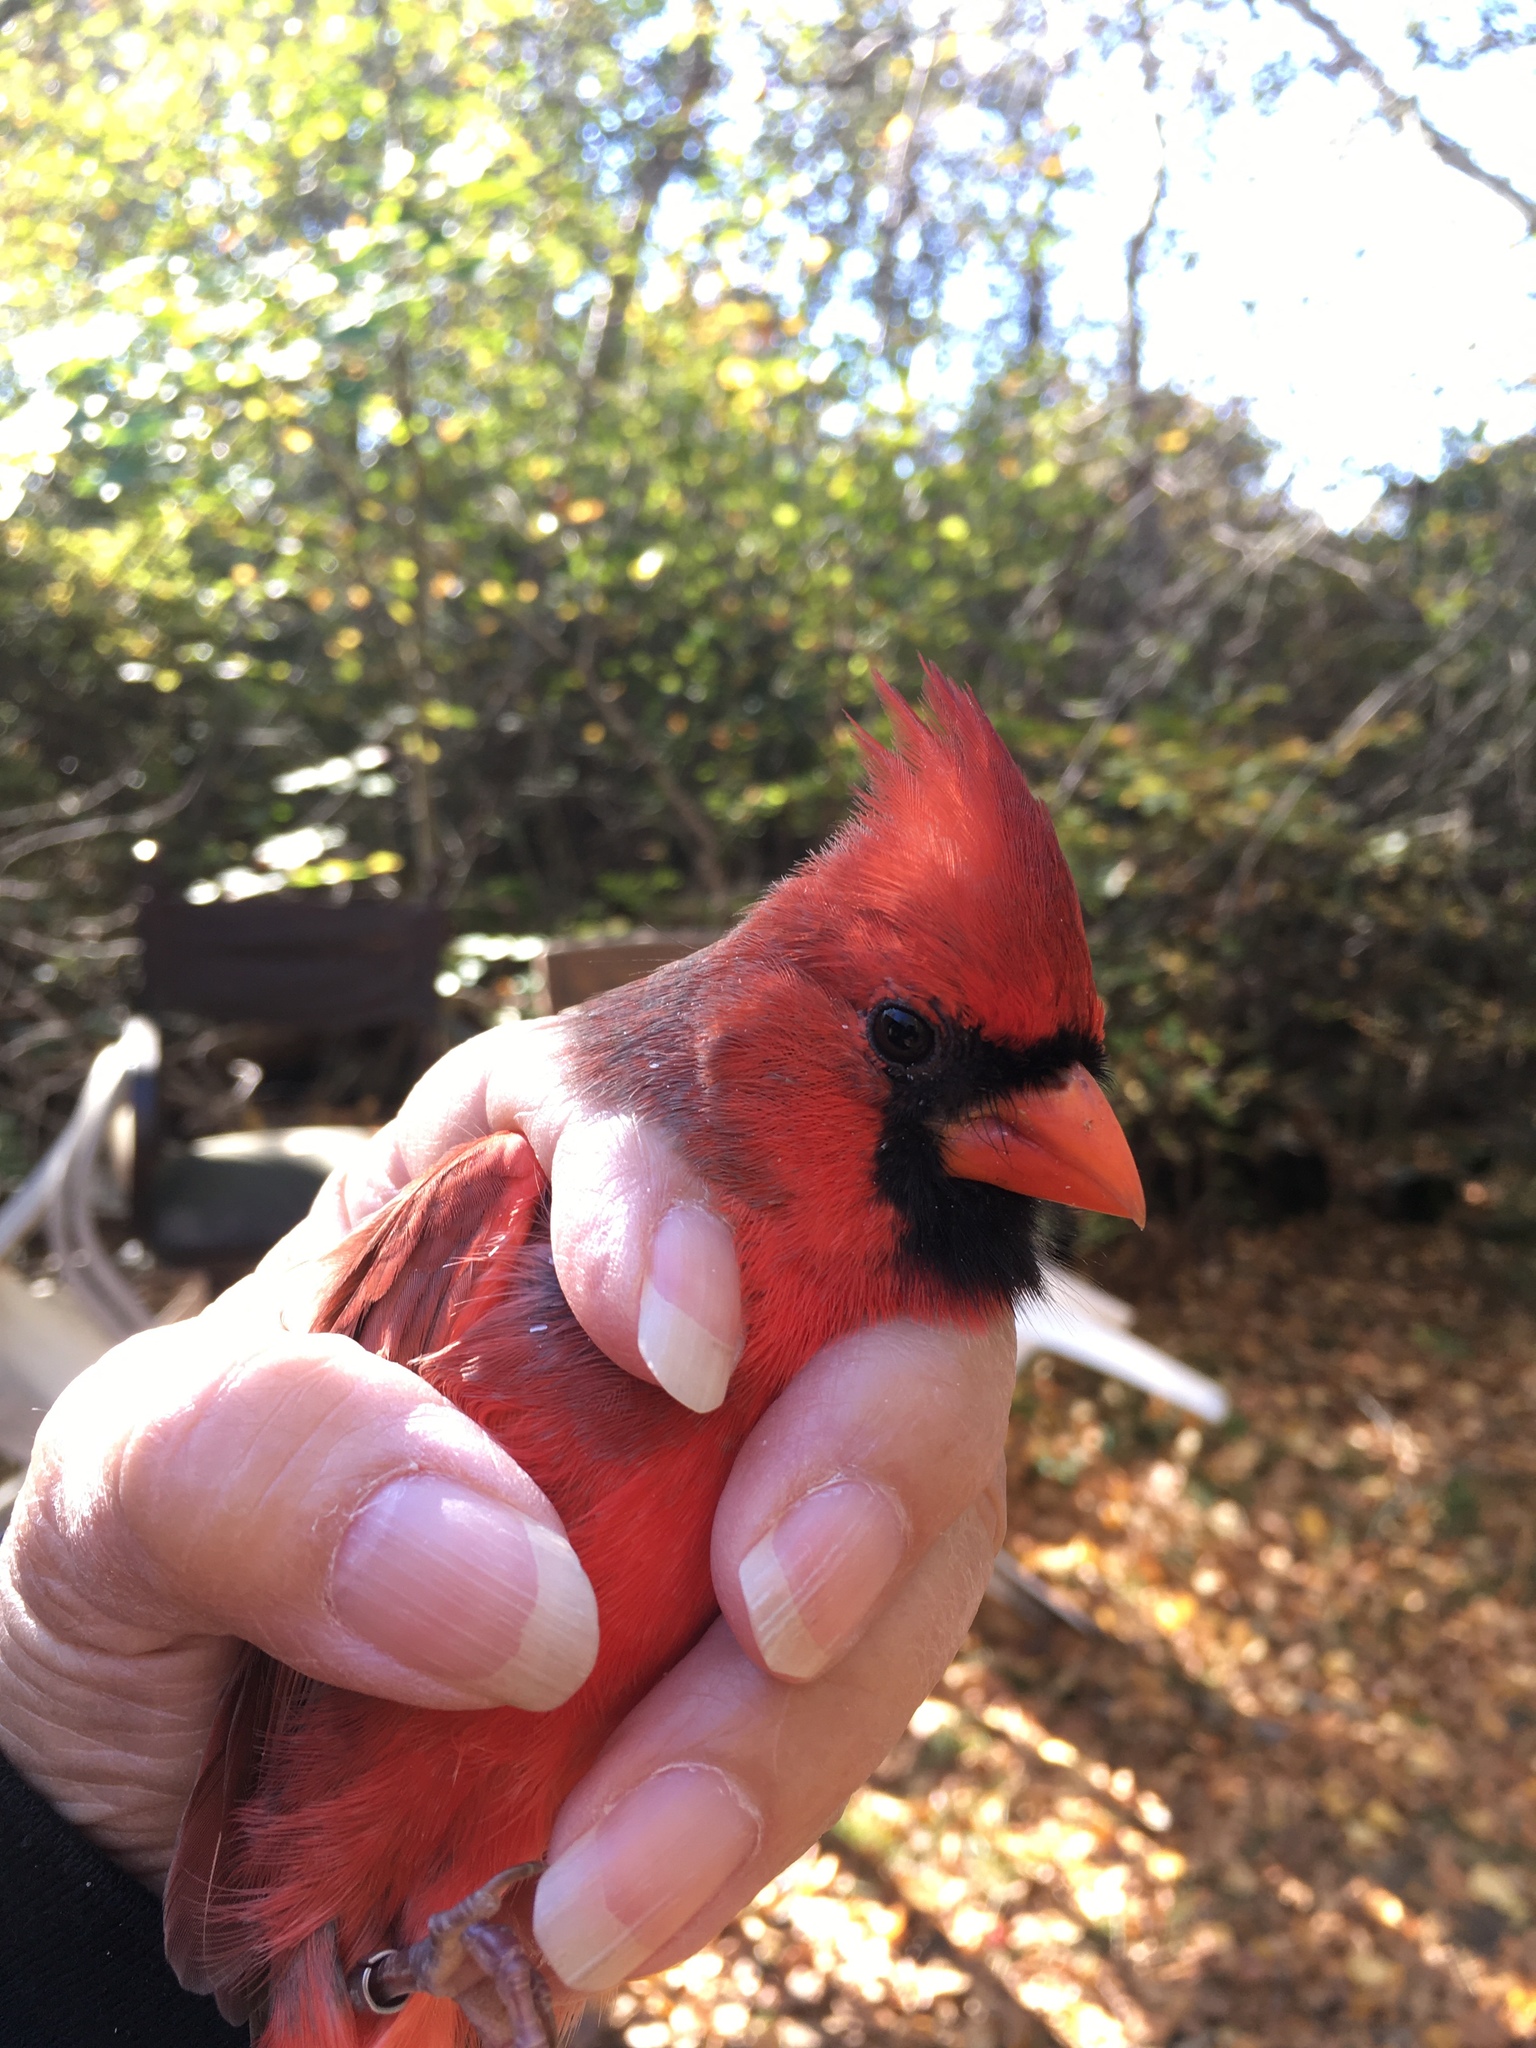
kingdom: Animalia
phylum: Chordata
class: Aves
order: Passeriformes
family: Cardinalidae
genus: Cardinalis
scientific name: Cardinalis cardinalis
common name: Northern cardinal
